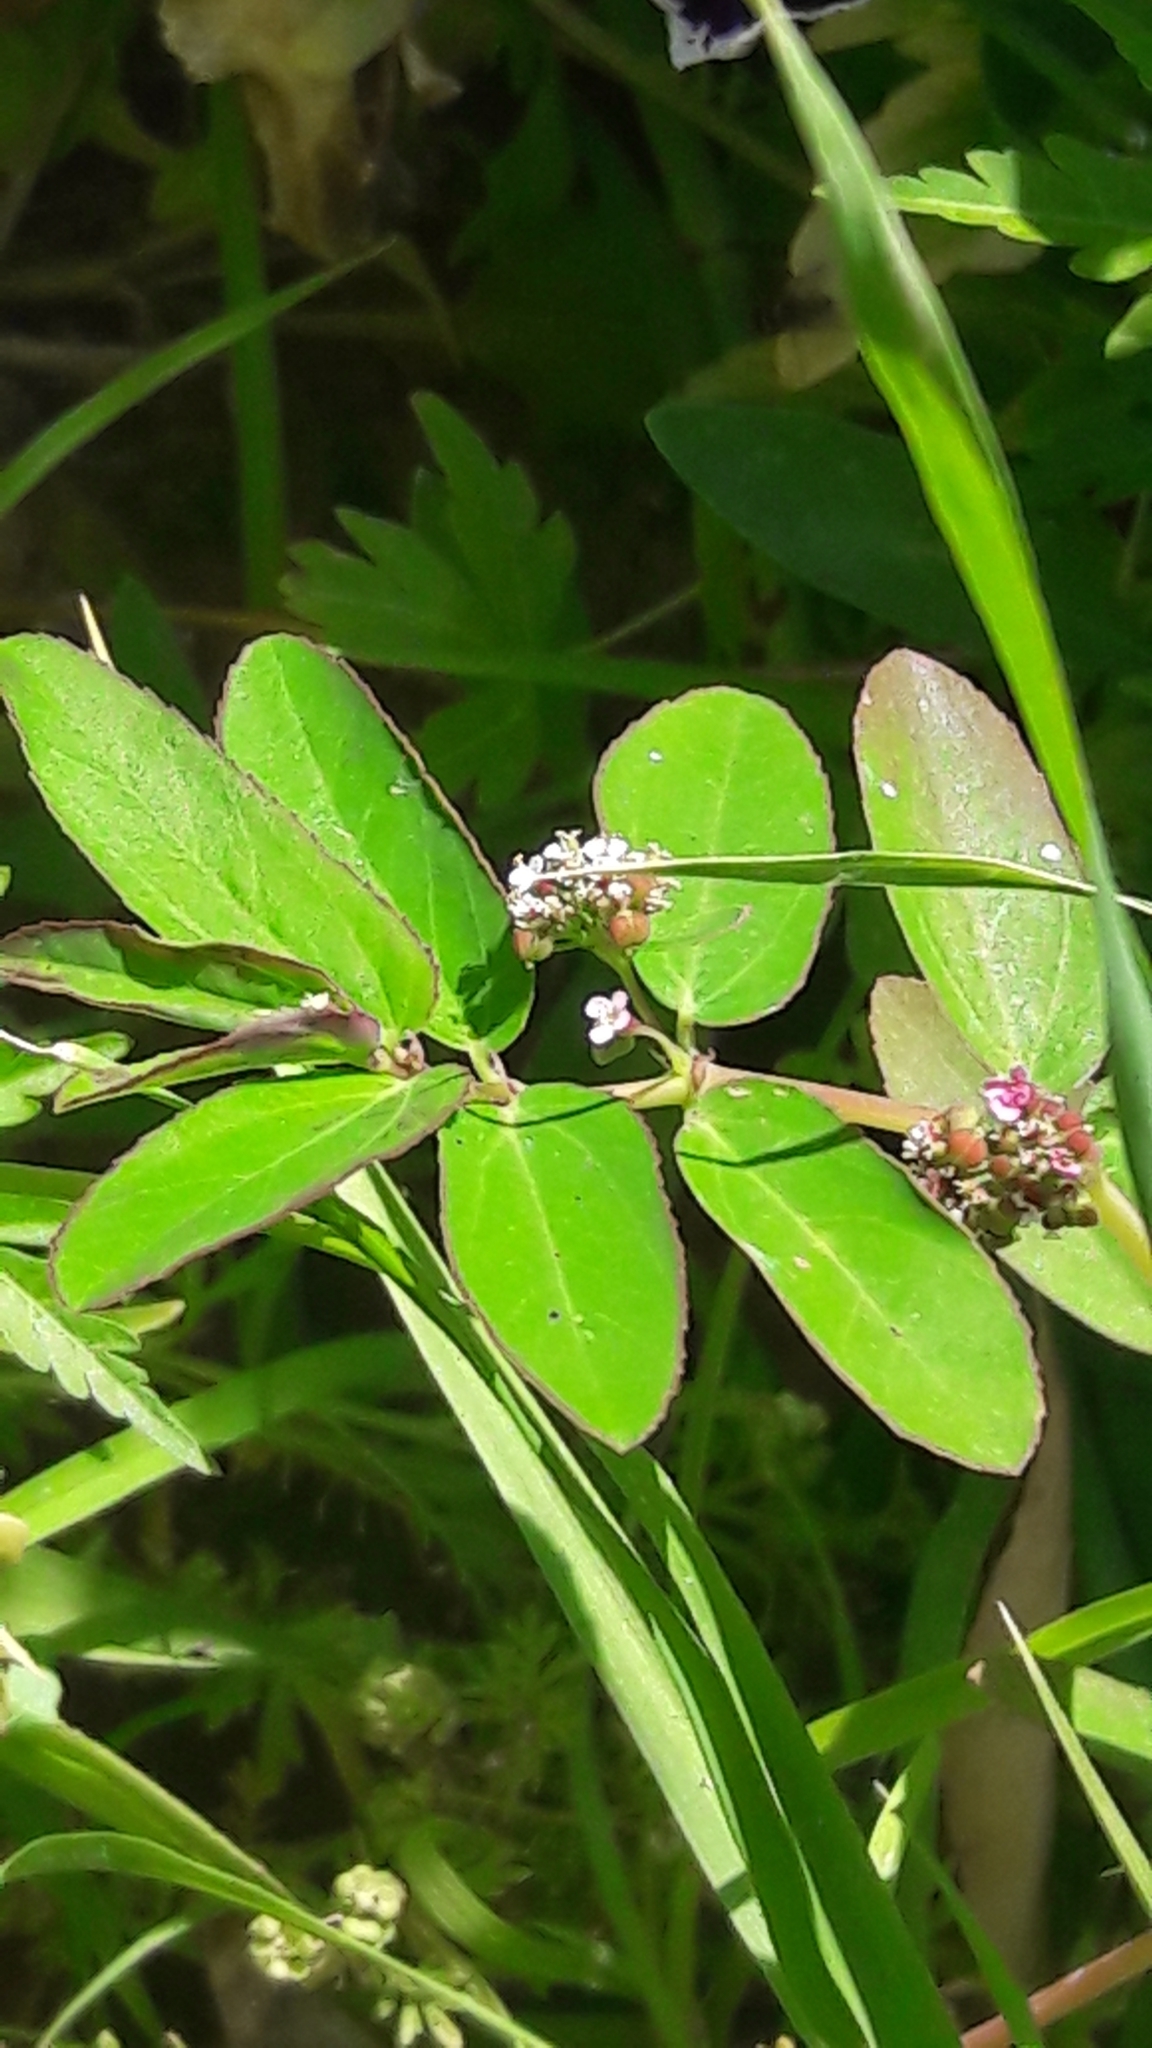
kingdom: Plantae
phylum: Tracheophyta
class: Magnoliopsida
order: Malpighiales
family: Euphorbiaceae
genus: Euphorbia
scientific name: Euphorbia hypericifolia
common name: Graceful sandmat
